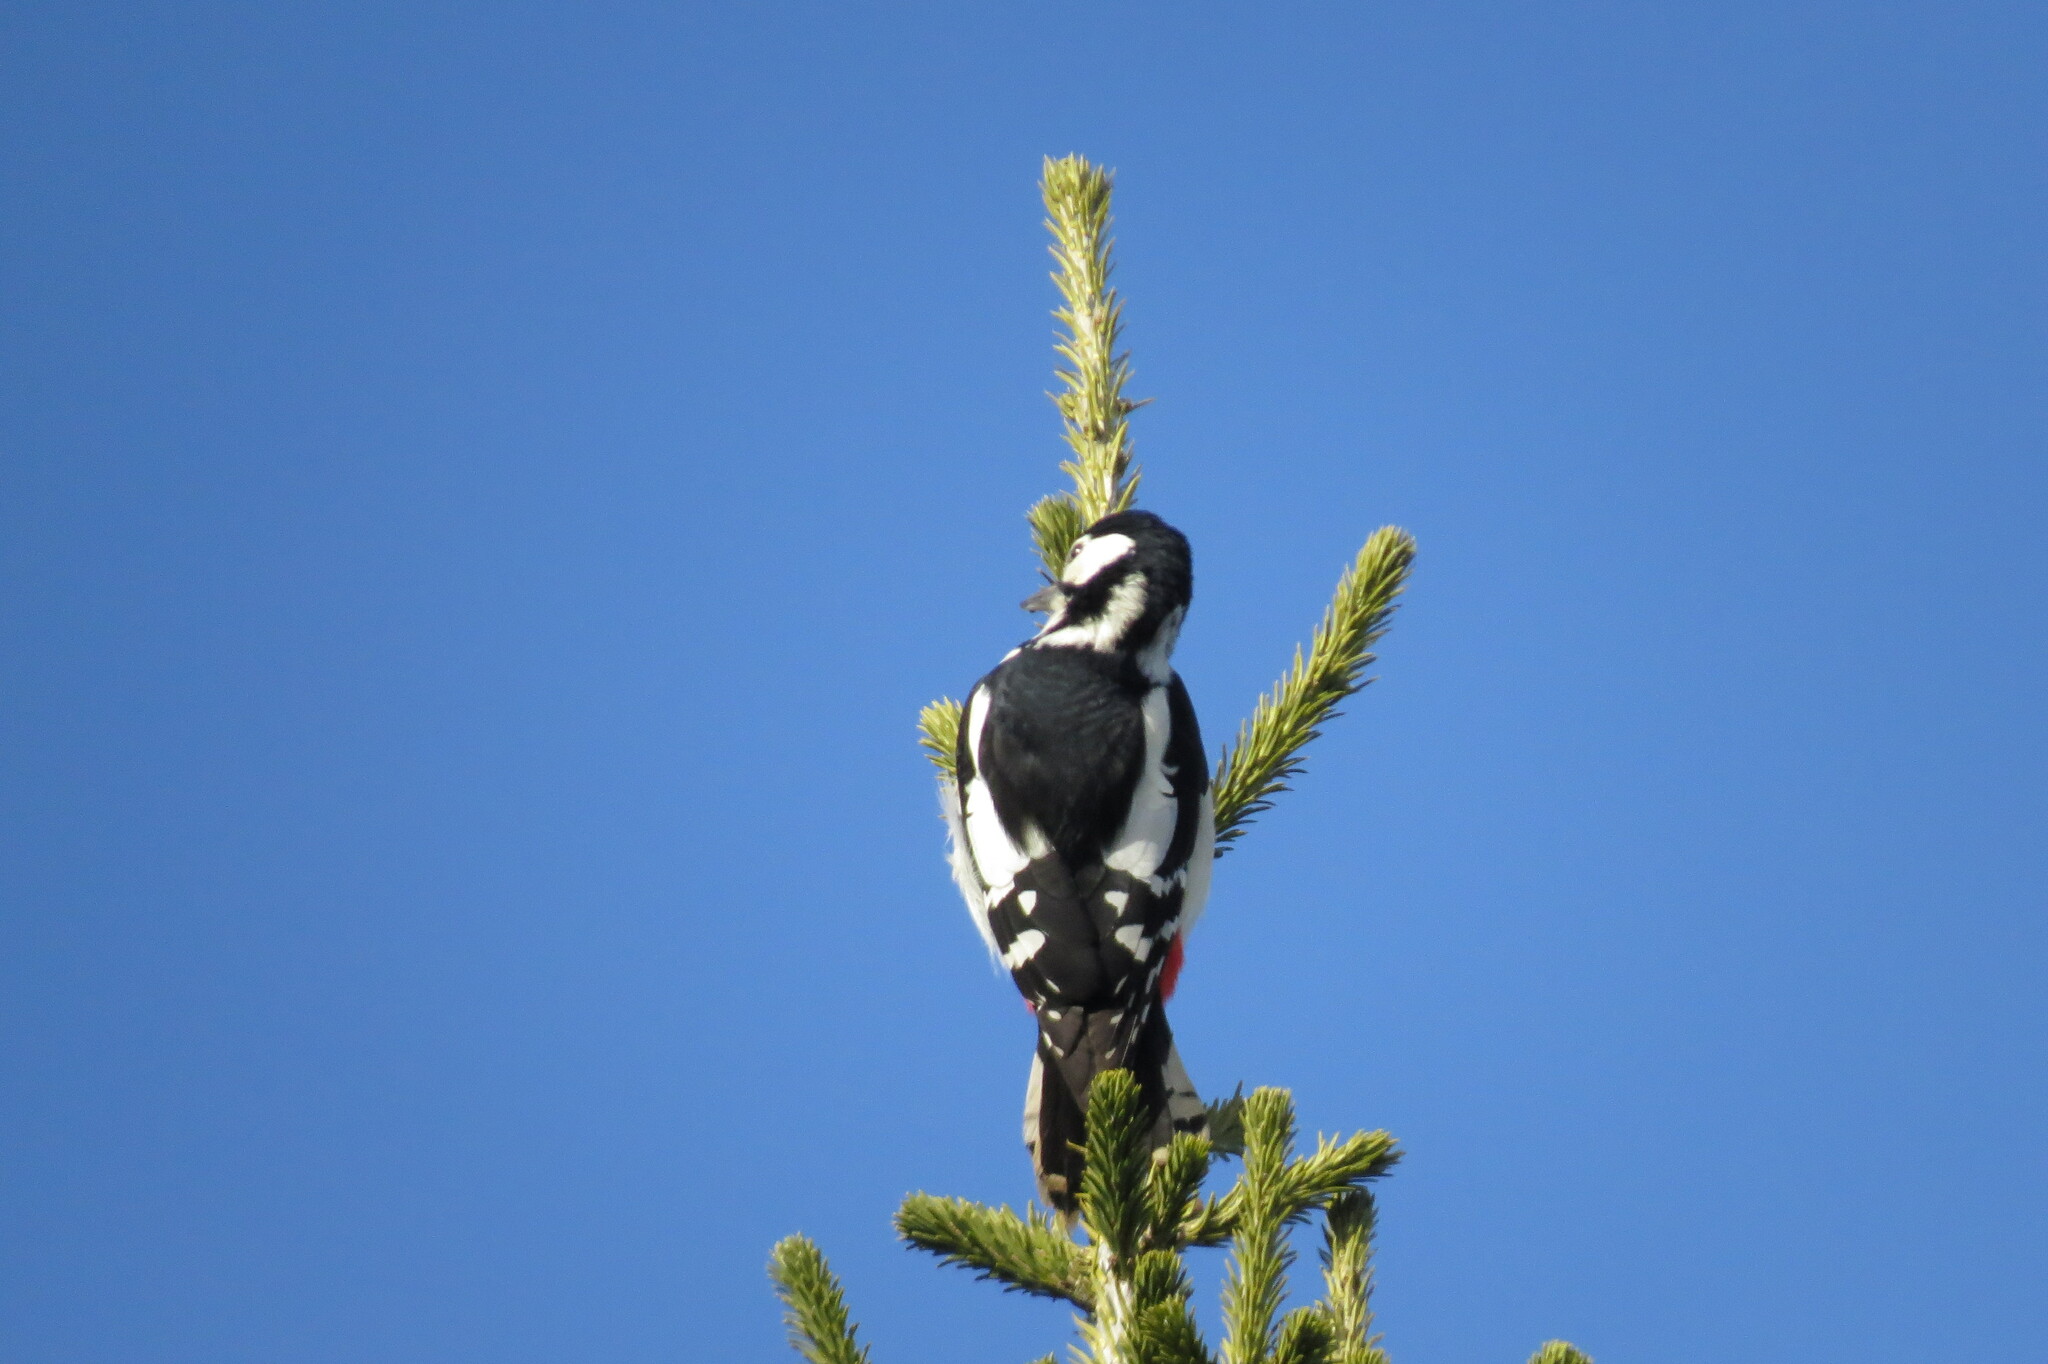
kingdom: Animalia
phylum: Chordata
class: Aves
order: Piciformes
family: Picidae
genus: Dendrocopos
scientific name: Dendrocopos major
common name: Great spotted woodpecker
